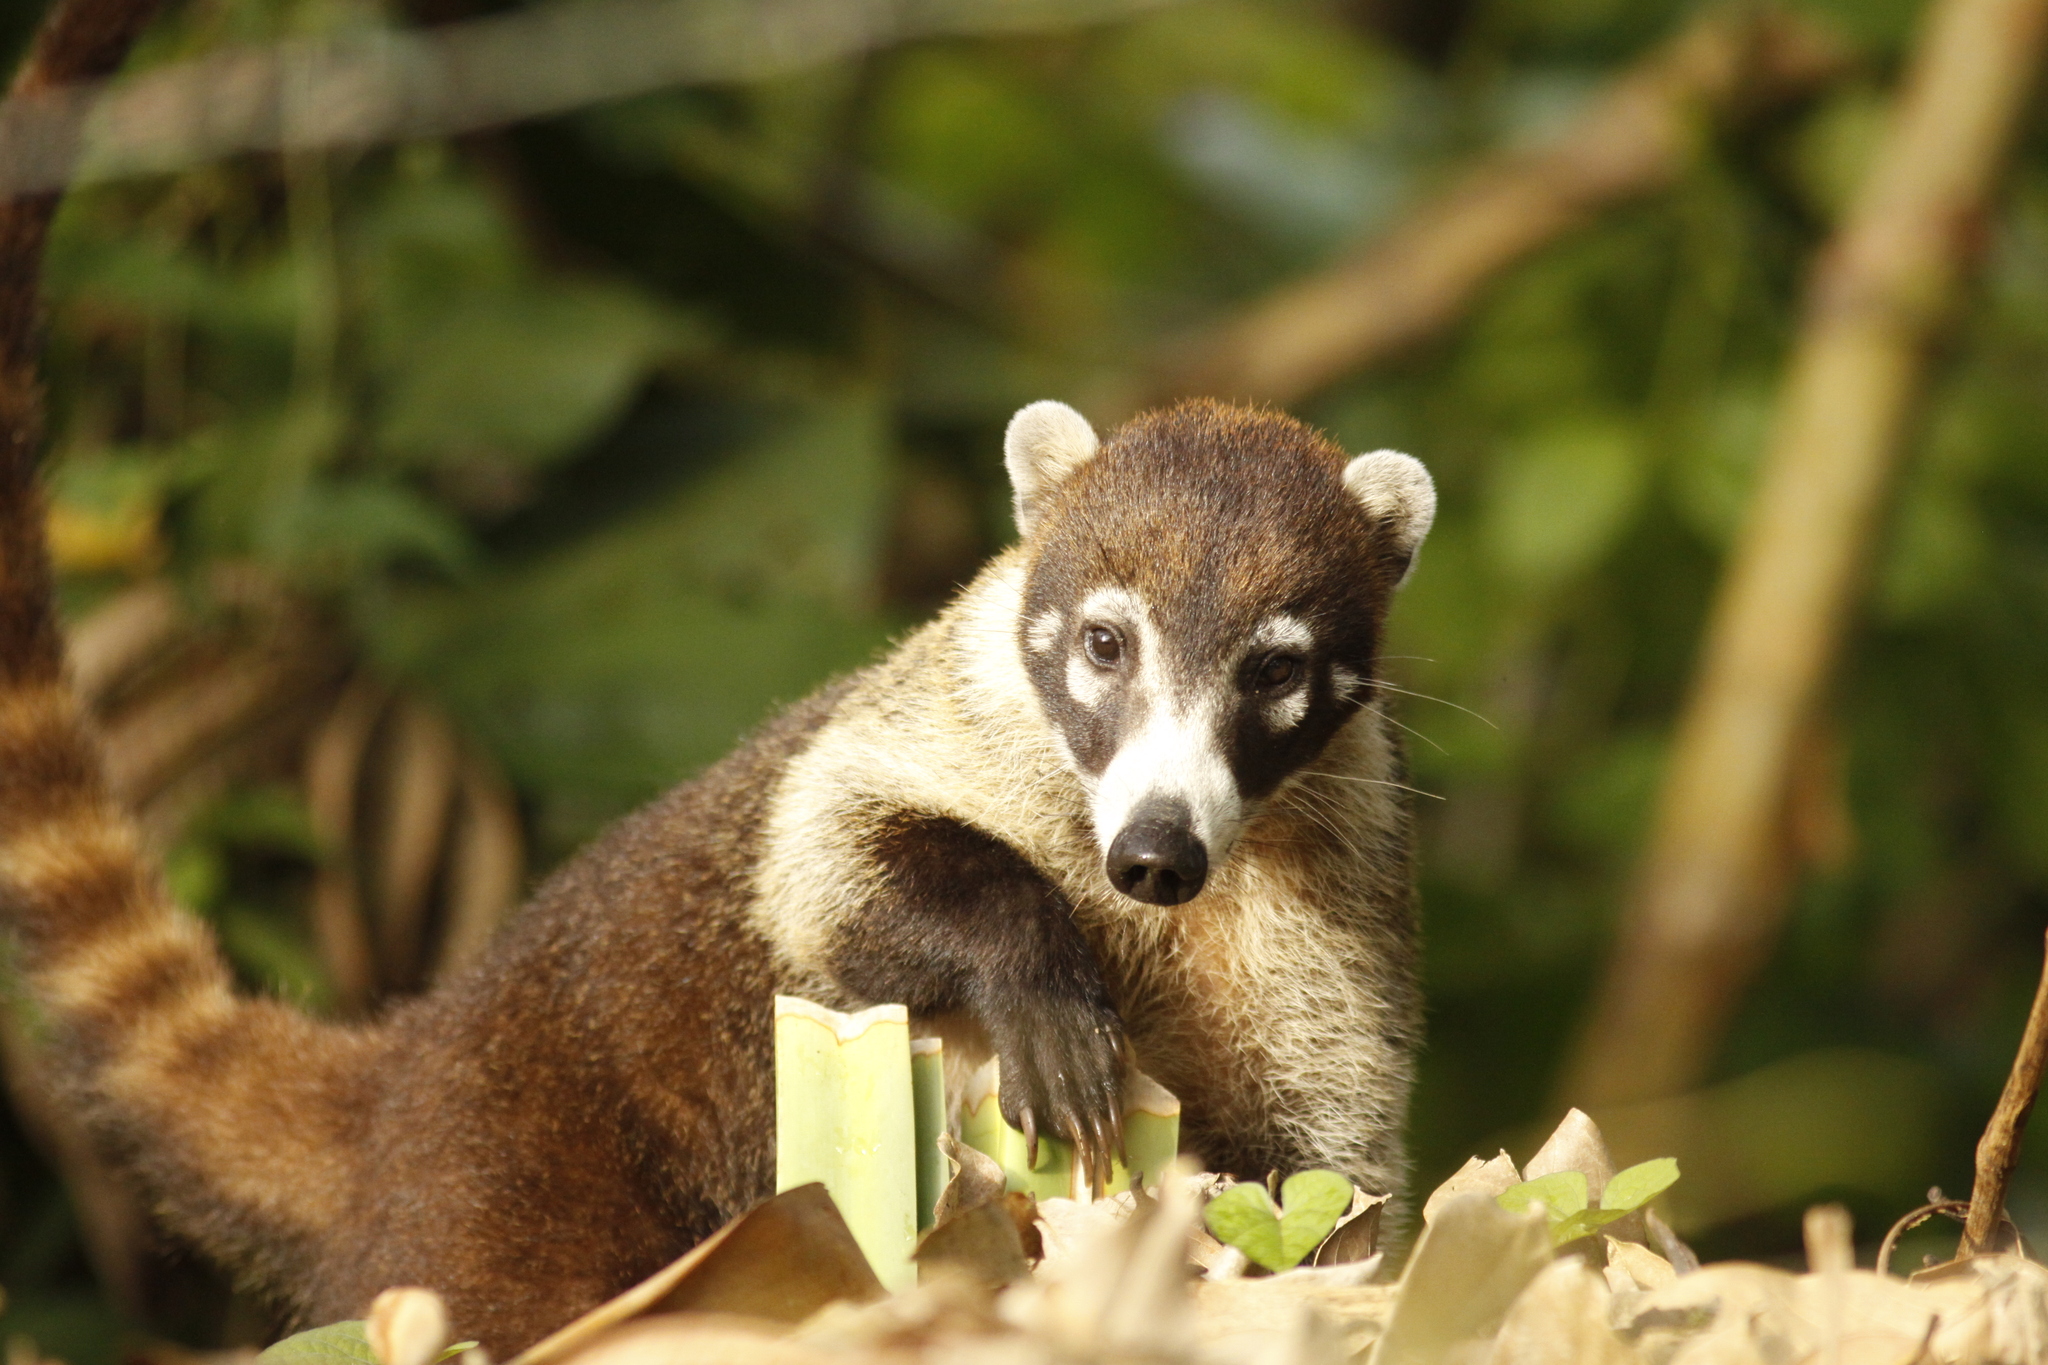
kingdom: Animalia
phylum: Chordata
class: Mammalia
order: Carnivora
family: Procyonidae
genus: Nasua
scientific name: Nasua narica
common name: White-nosed coati
